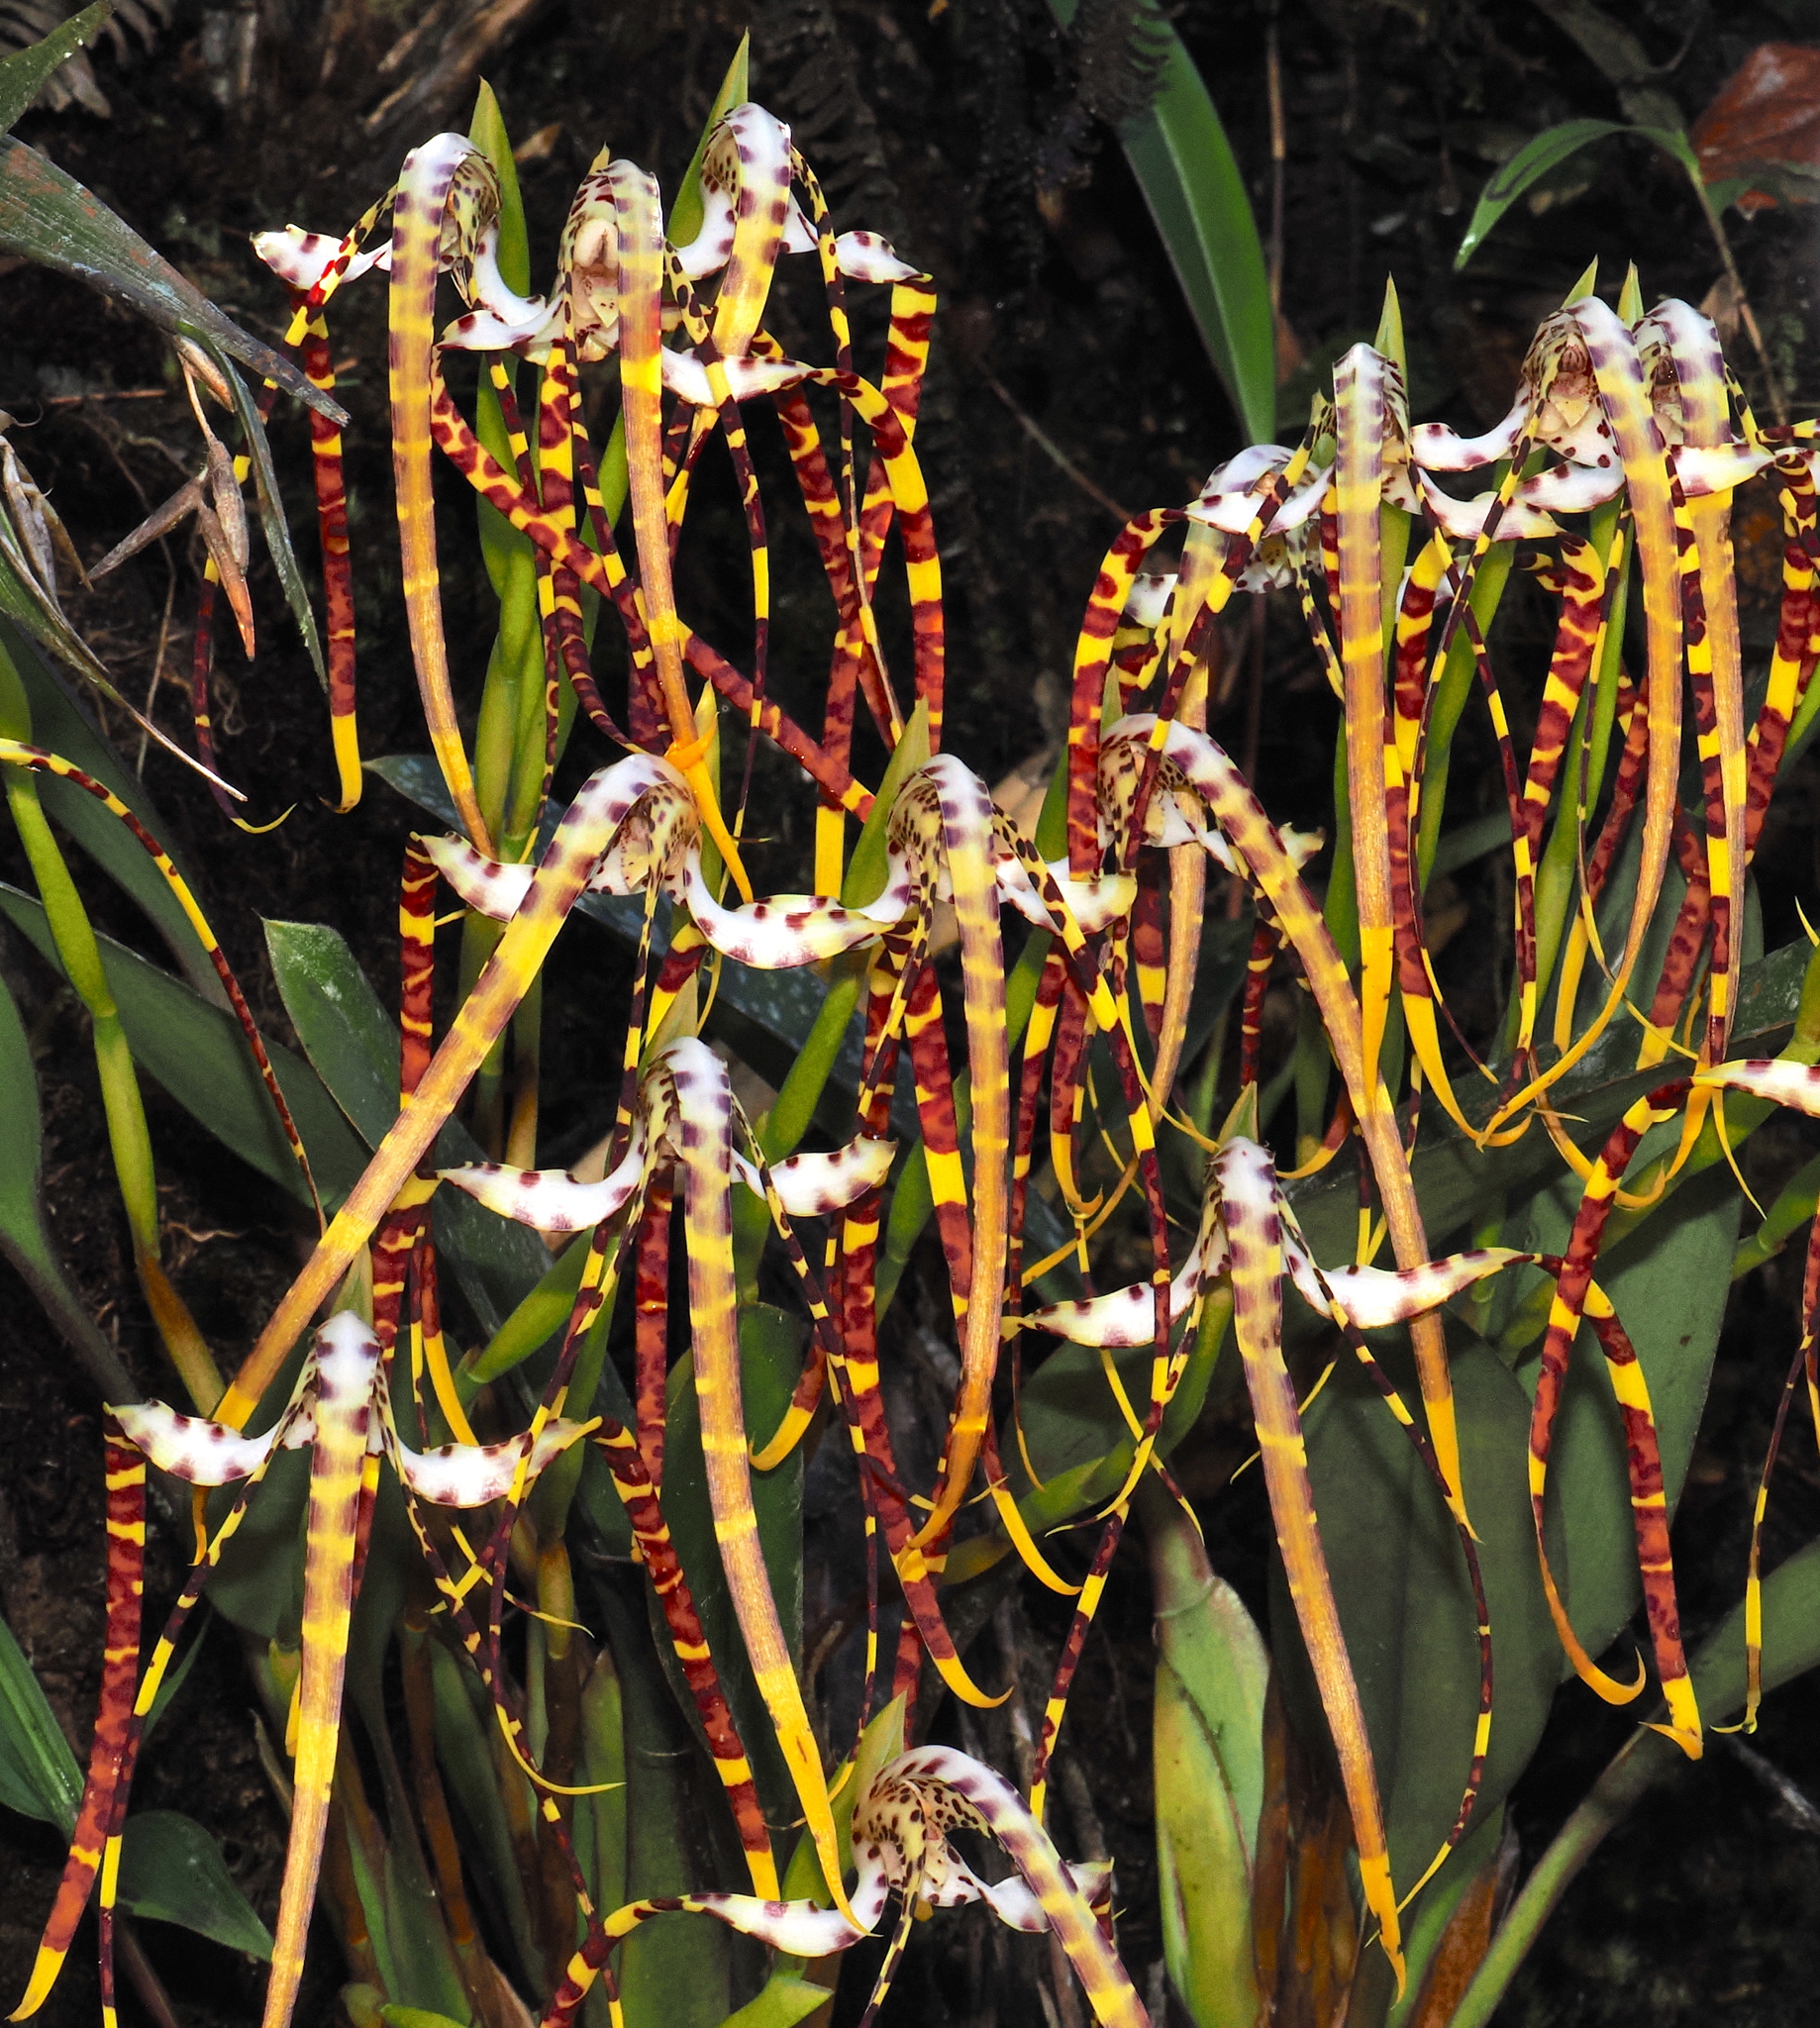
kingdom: Plantae
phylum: Tracheophyta
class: Liliopsida
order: Asparagales
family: Orchidaceae
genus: Maxillaria
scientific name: Maxillaria speciosa
